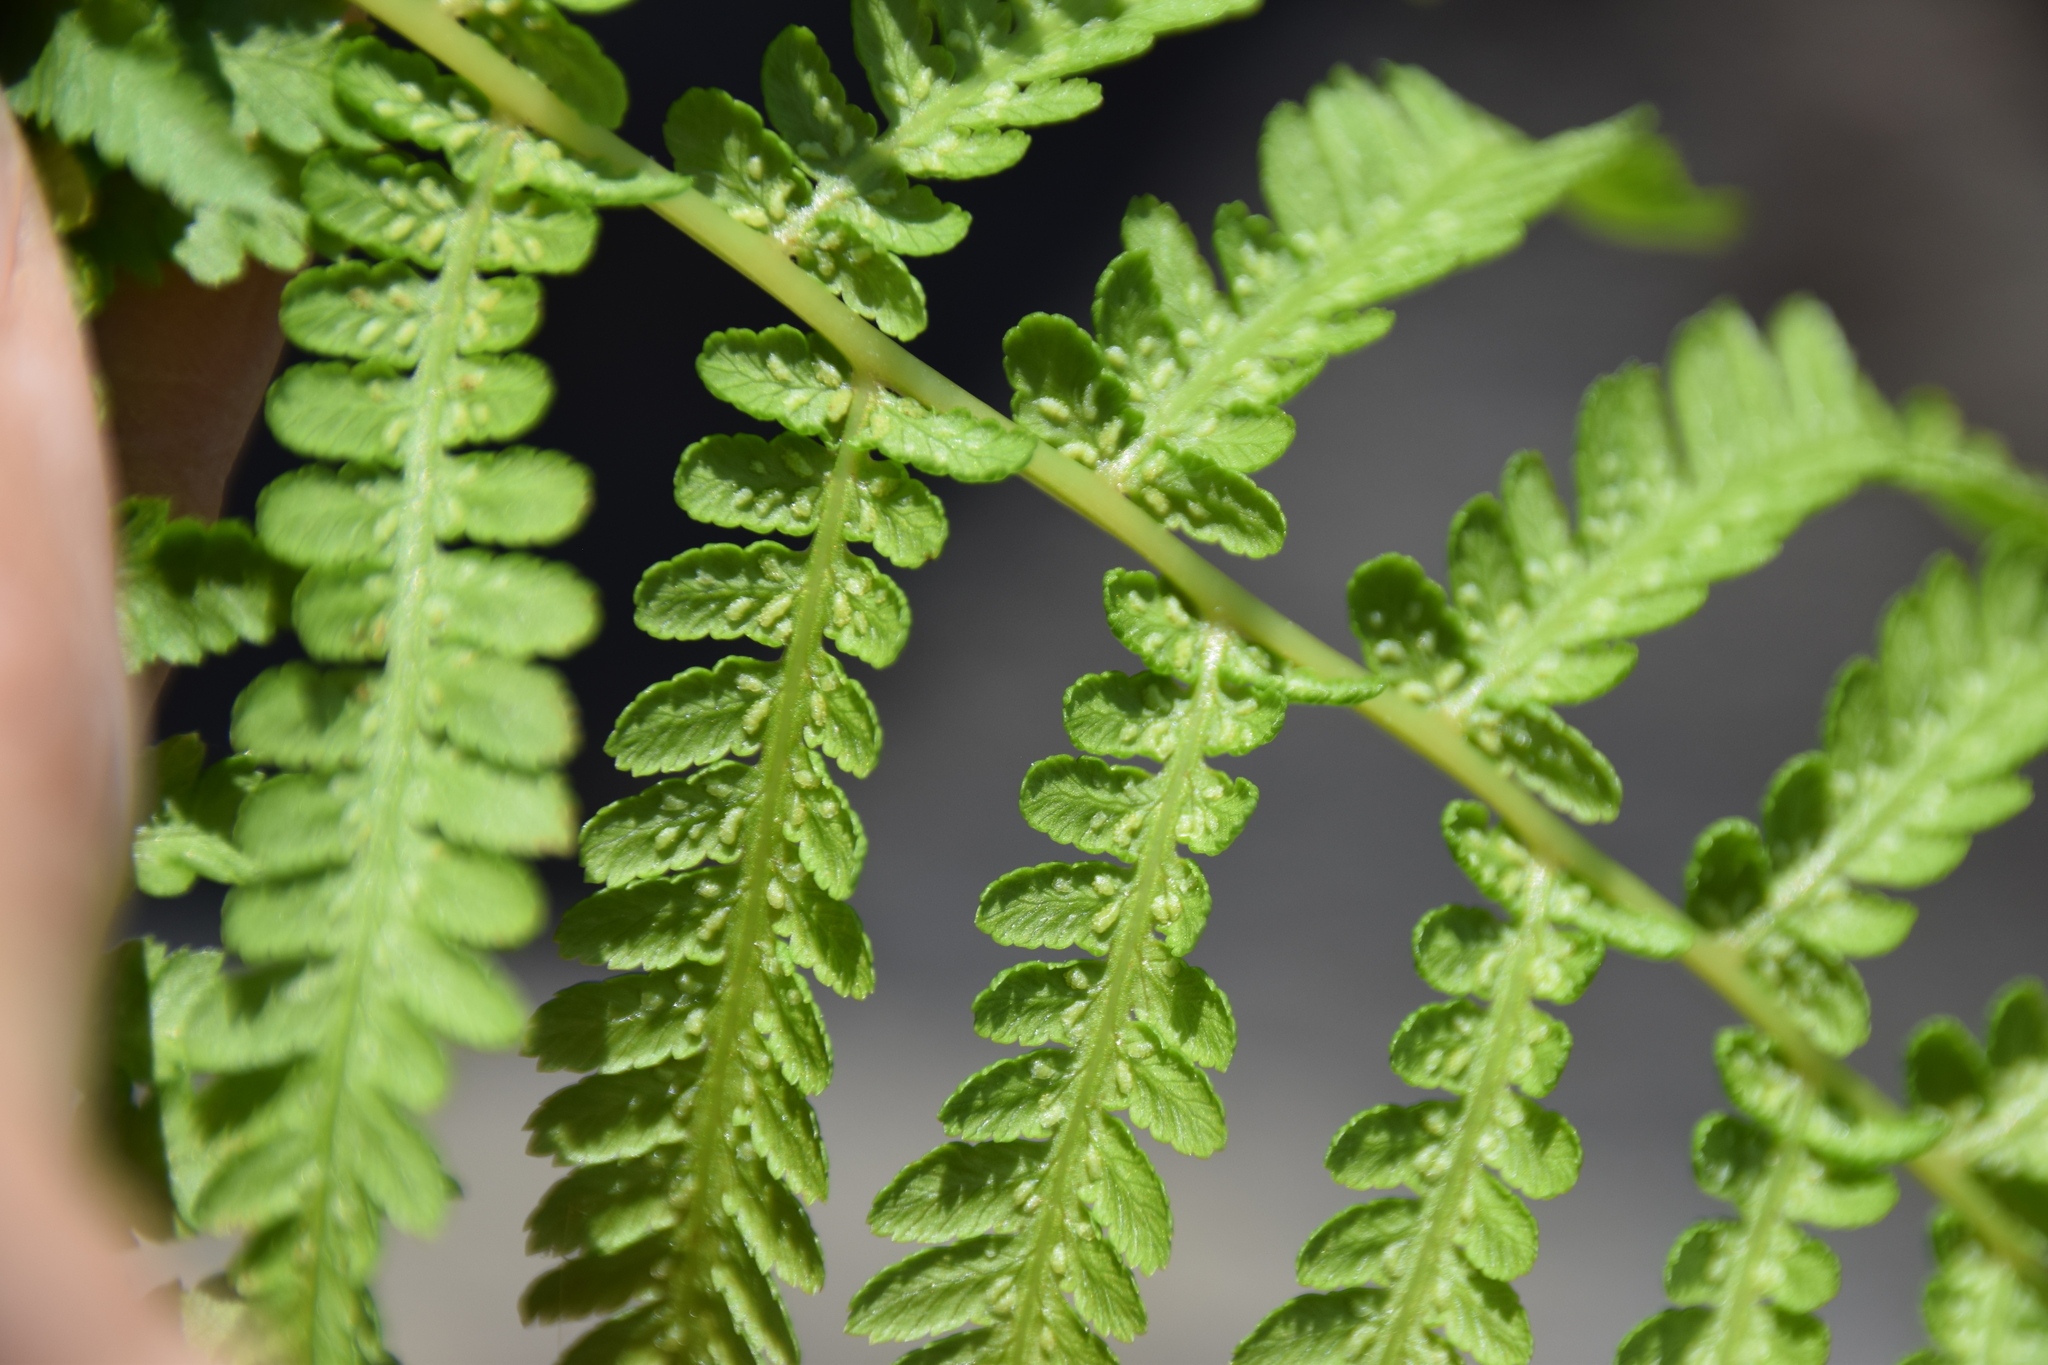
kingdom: Plantae
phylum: Tracheophyta
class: Polypodiopsida
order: Polypodiales
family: Athyriaceae
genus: Athyrium
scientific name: Athyrium angustum
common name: Northern lady fern
